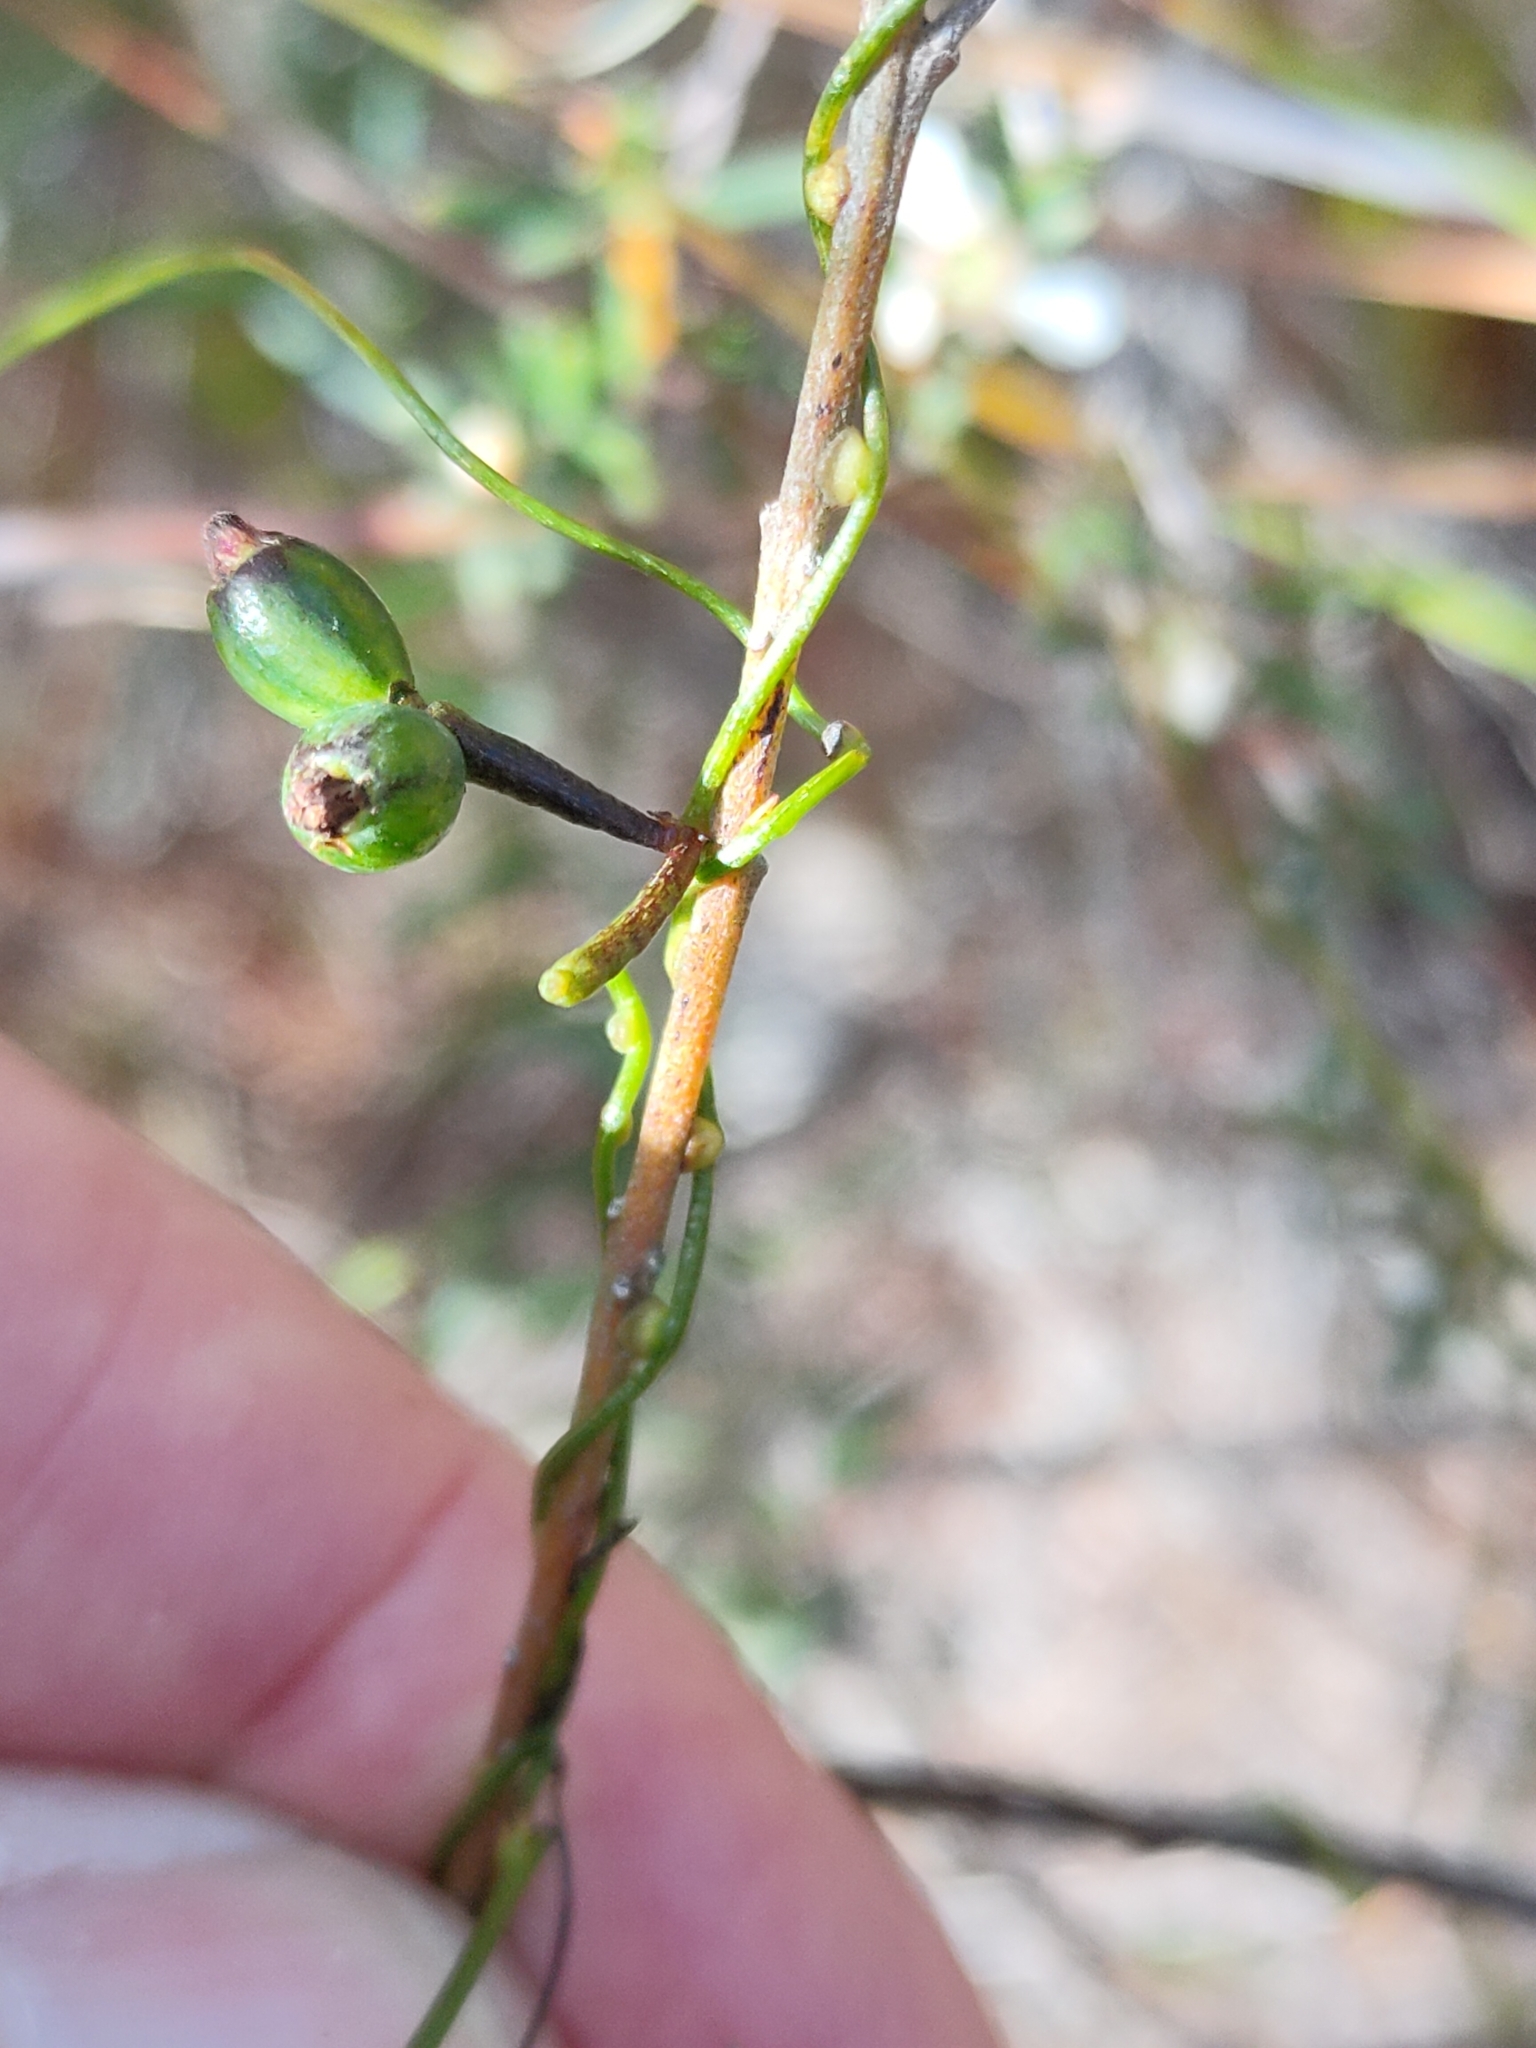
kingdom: Plantae
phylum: Tracheophyta
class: Magnoliopsida
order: Laurales
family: Lauraceae
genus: Cassytha
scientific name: Cassytha glabella
